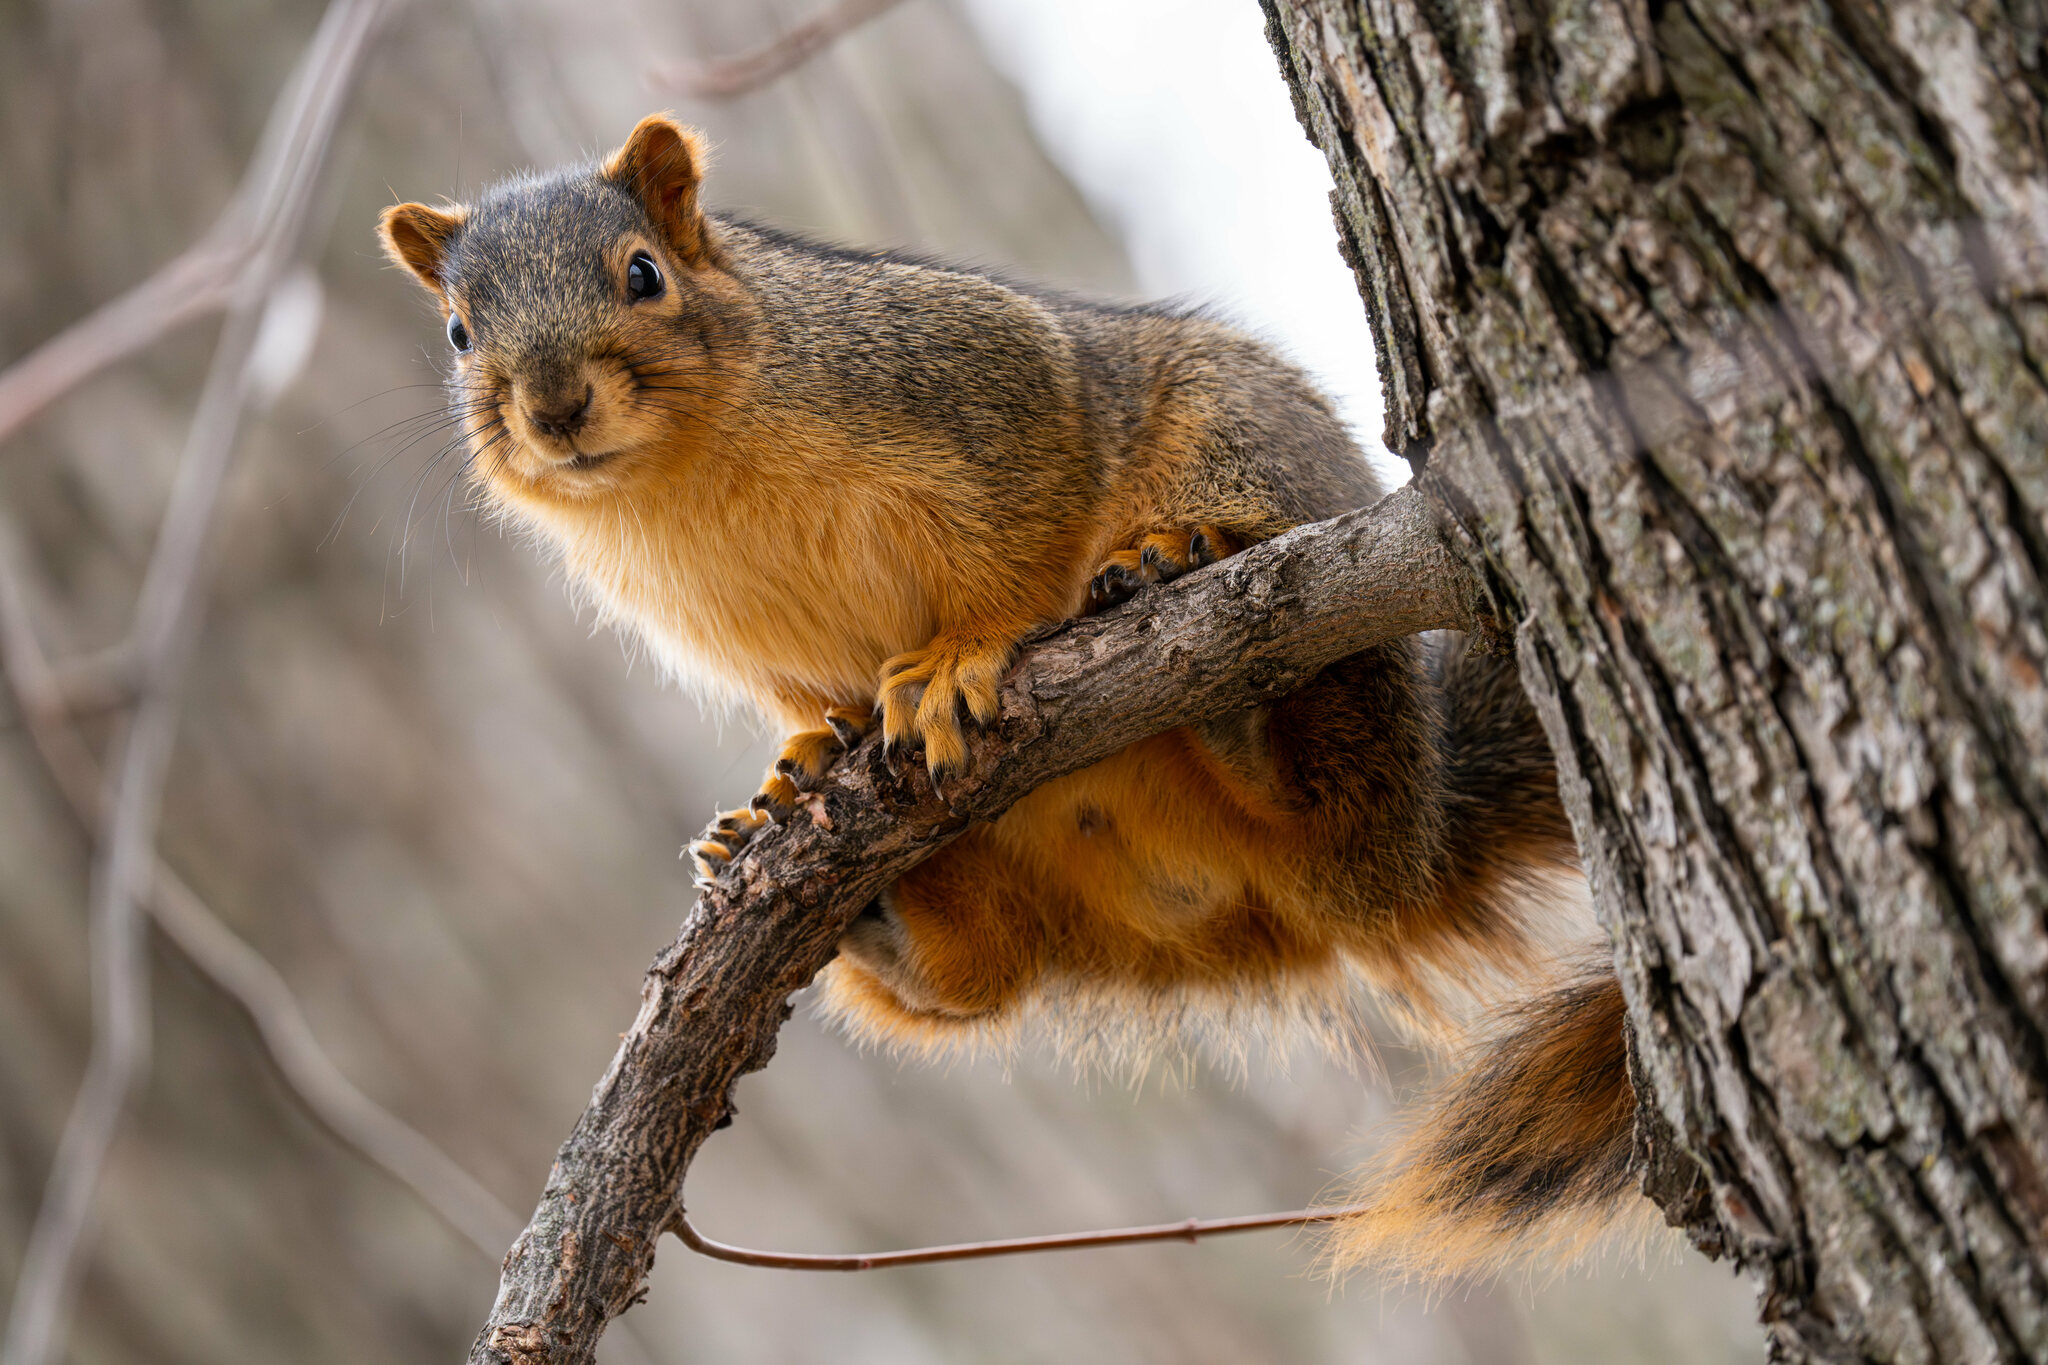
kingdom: Animalia
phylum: Chordata
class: Mammalia
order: Rodentia
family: Sciuridae
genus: Sciurus
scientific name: Sciurus niger
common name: Fox squirrel
